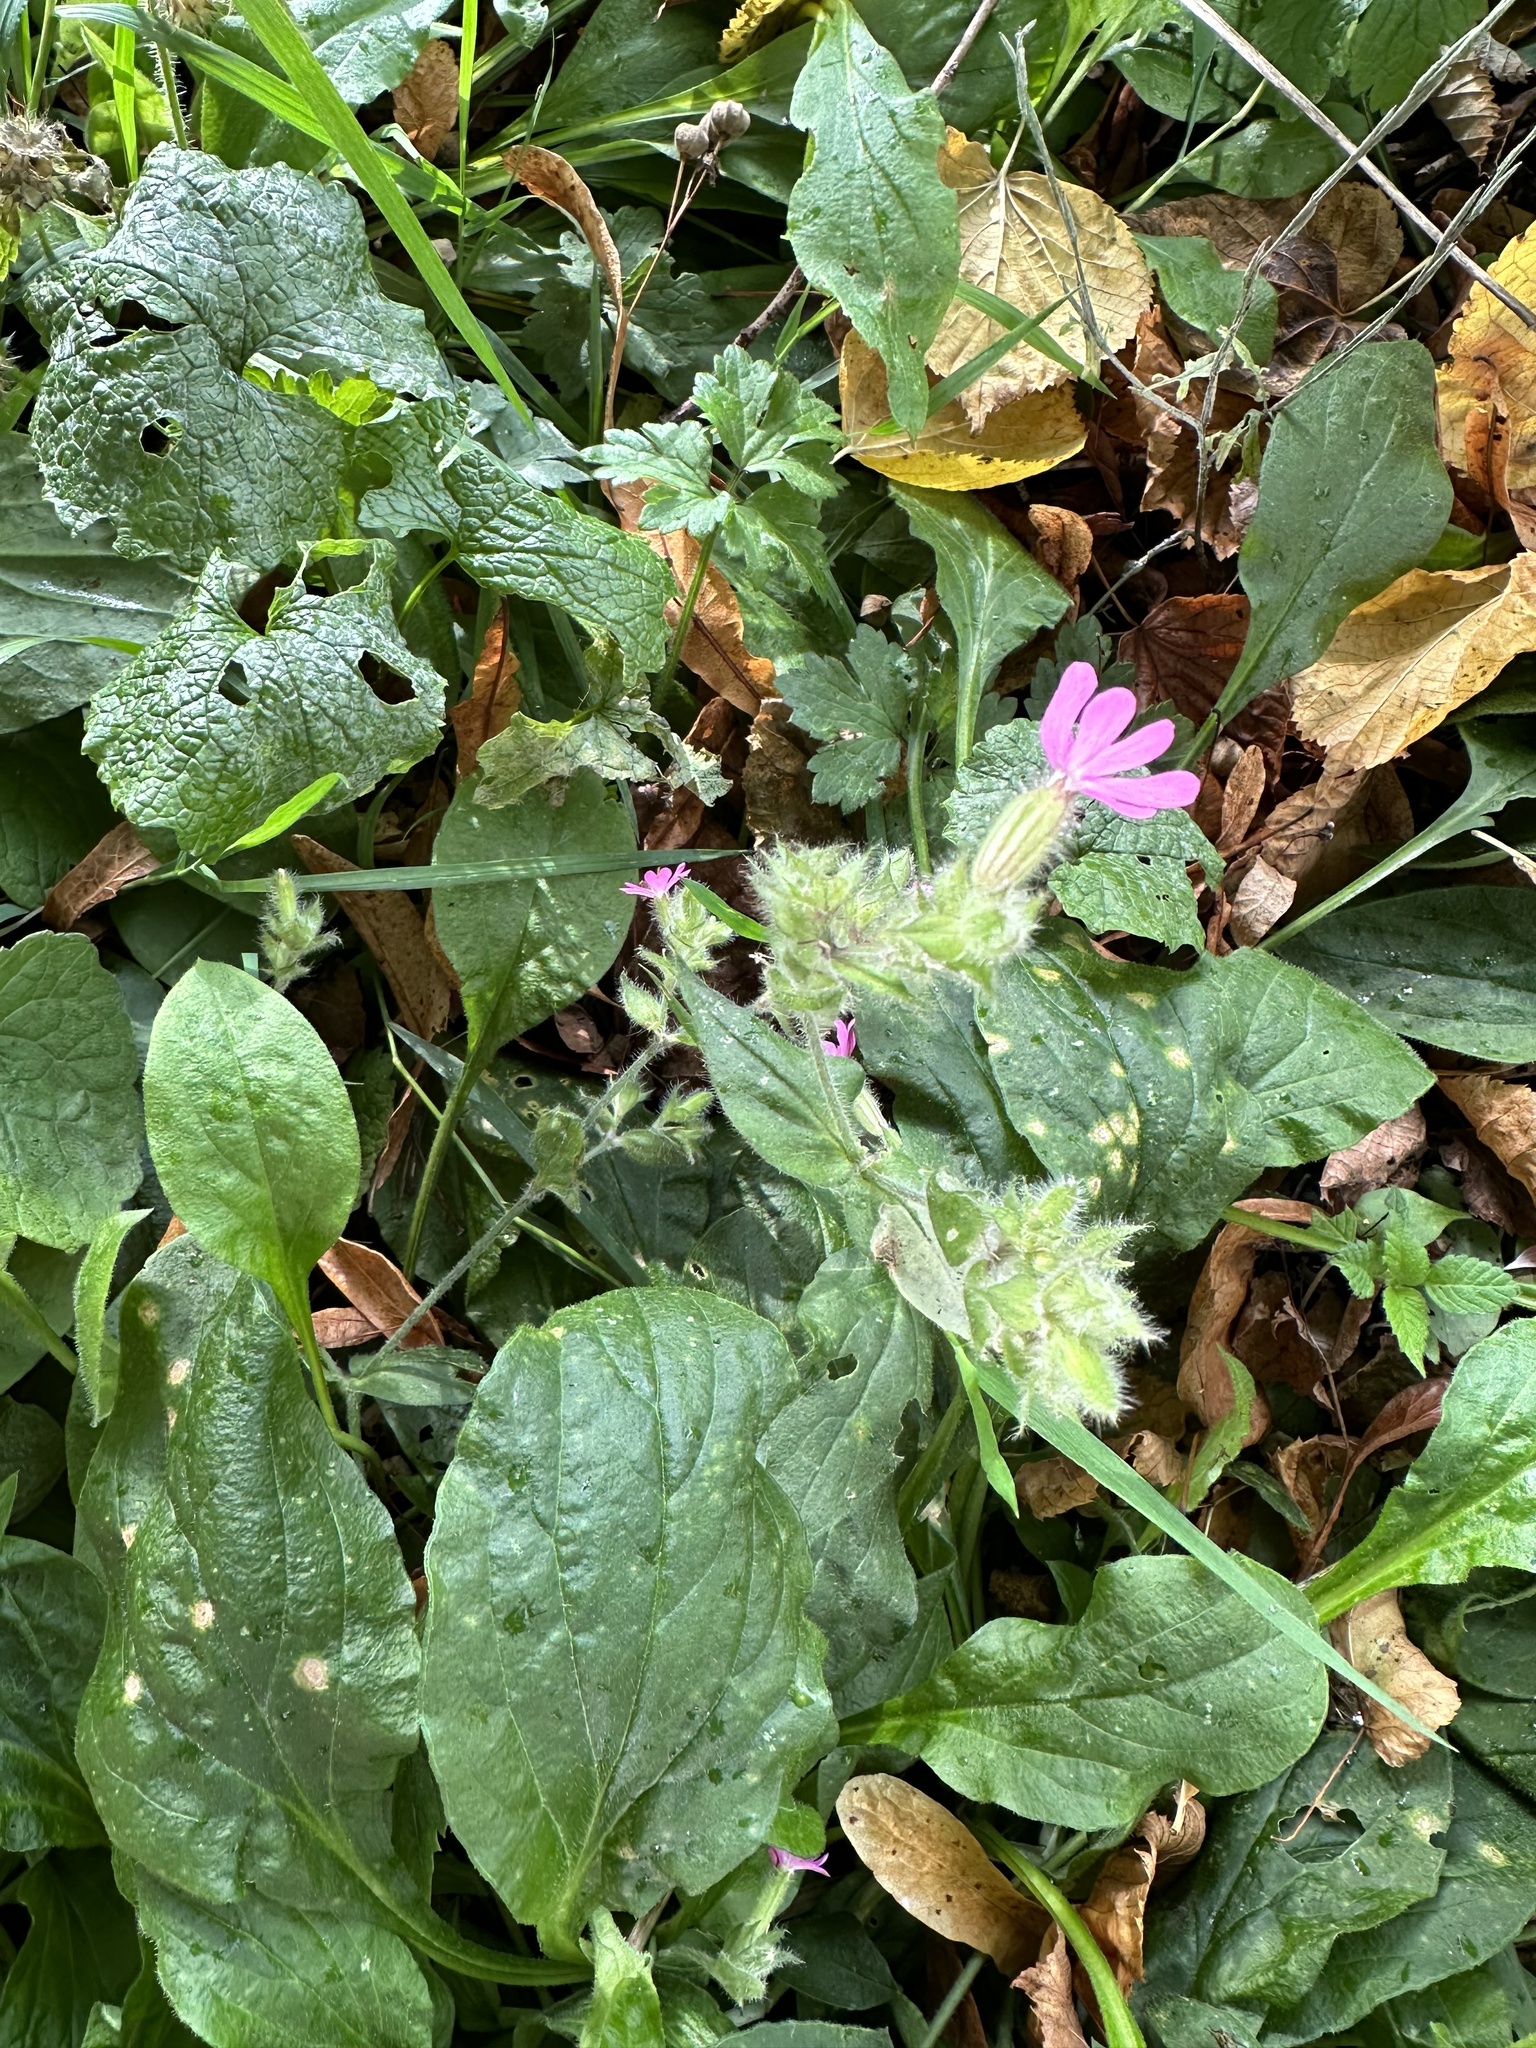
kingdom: Plantae
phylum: Tracheophyta
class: Magnoliopsida
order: Caryophyllales
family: Caryophyllaceae
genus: Silene
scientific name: Silene dioica
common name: Red campion
